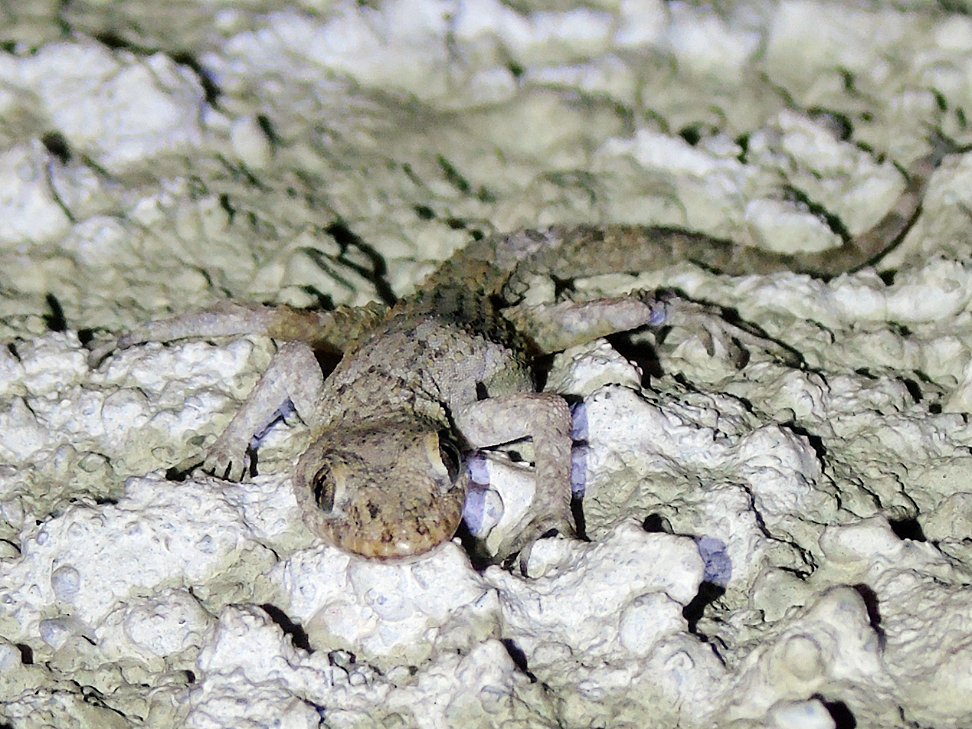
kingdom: Animalia
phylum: Chordata
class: Squamata
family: Gekkonidae
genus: Mediodactylus
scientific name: Mediodactylus kotschyi
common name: Kotschy's gecko
